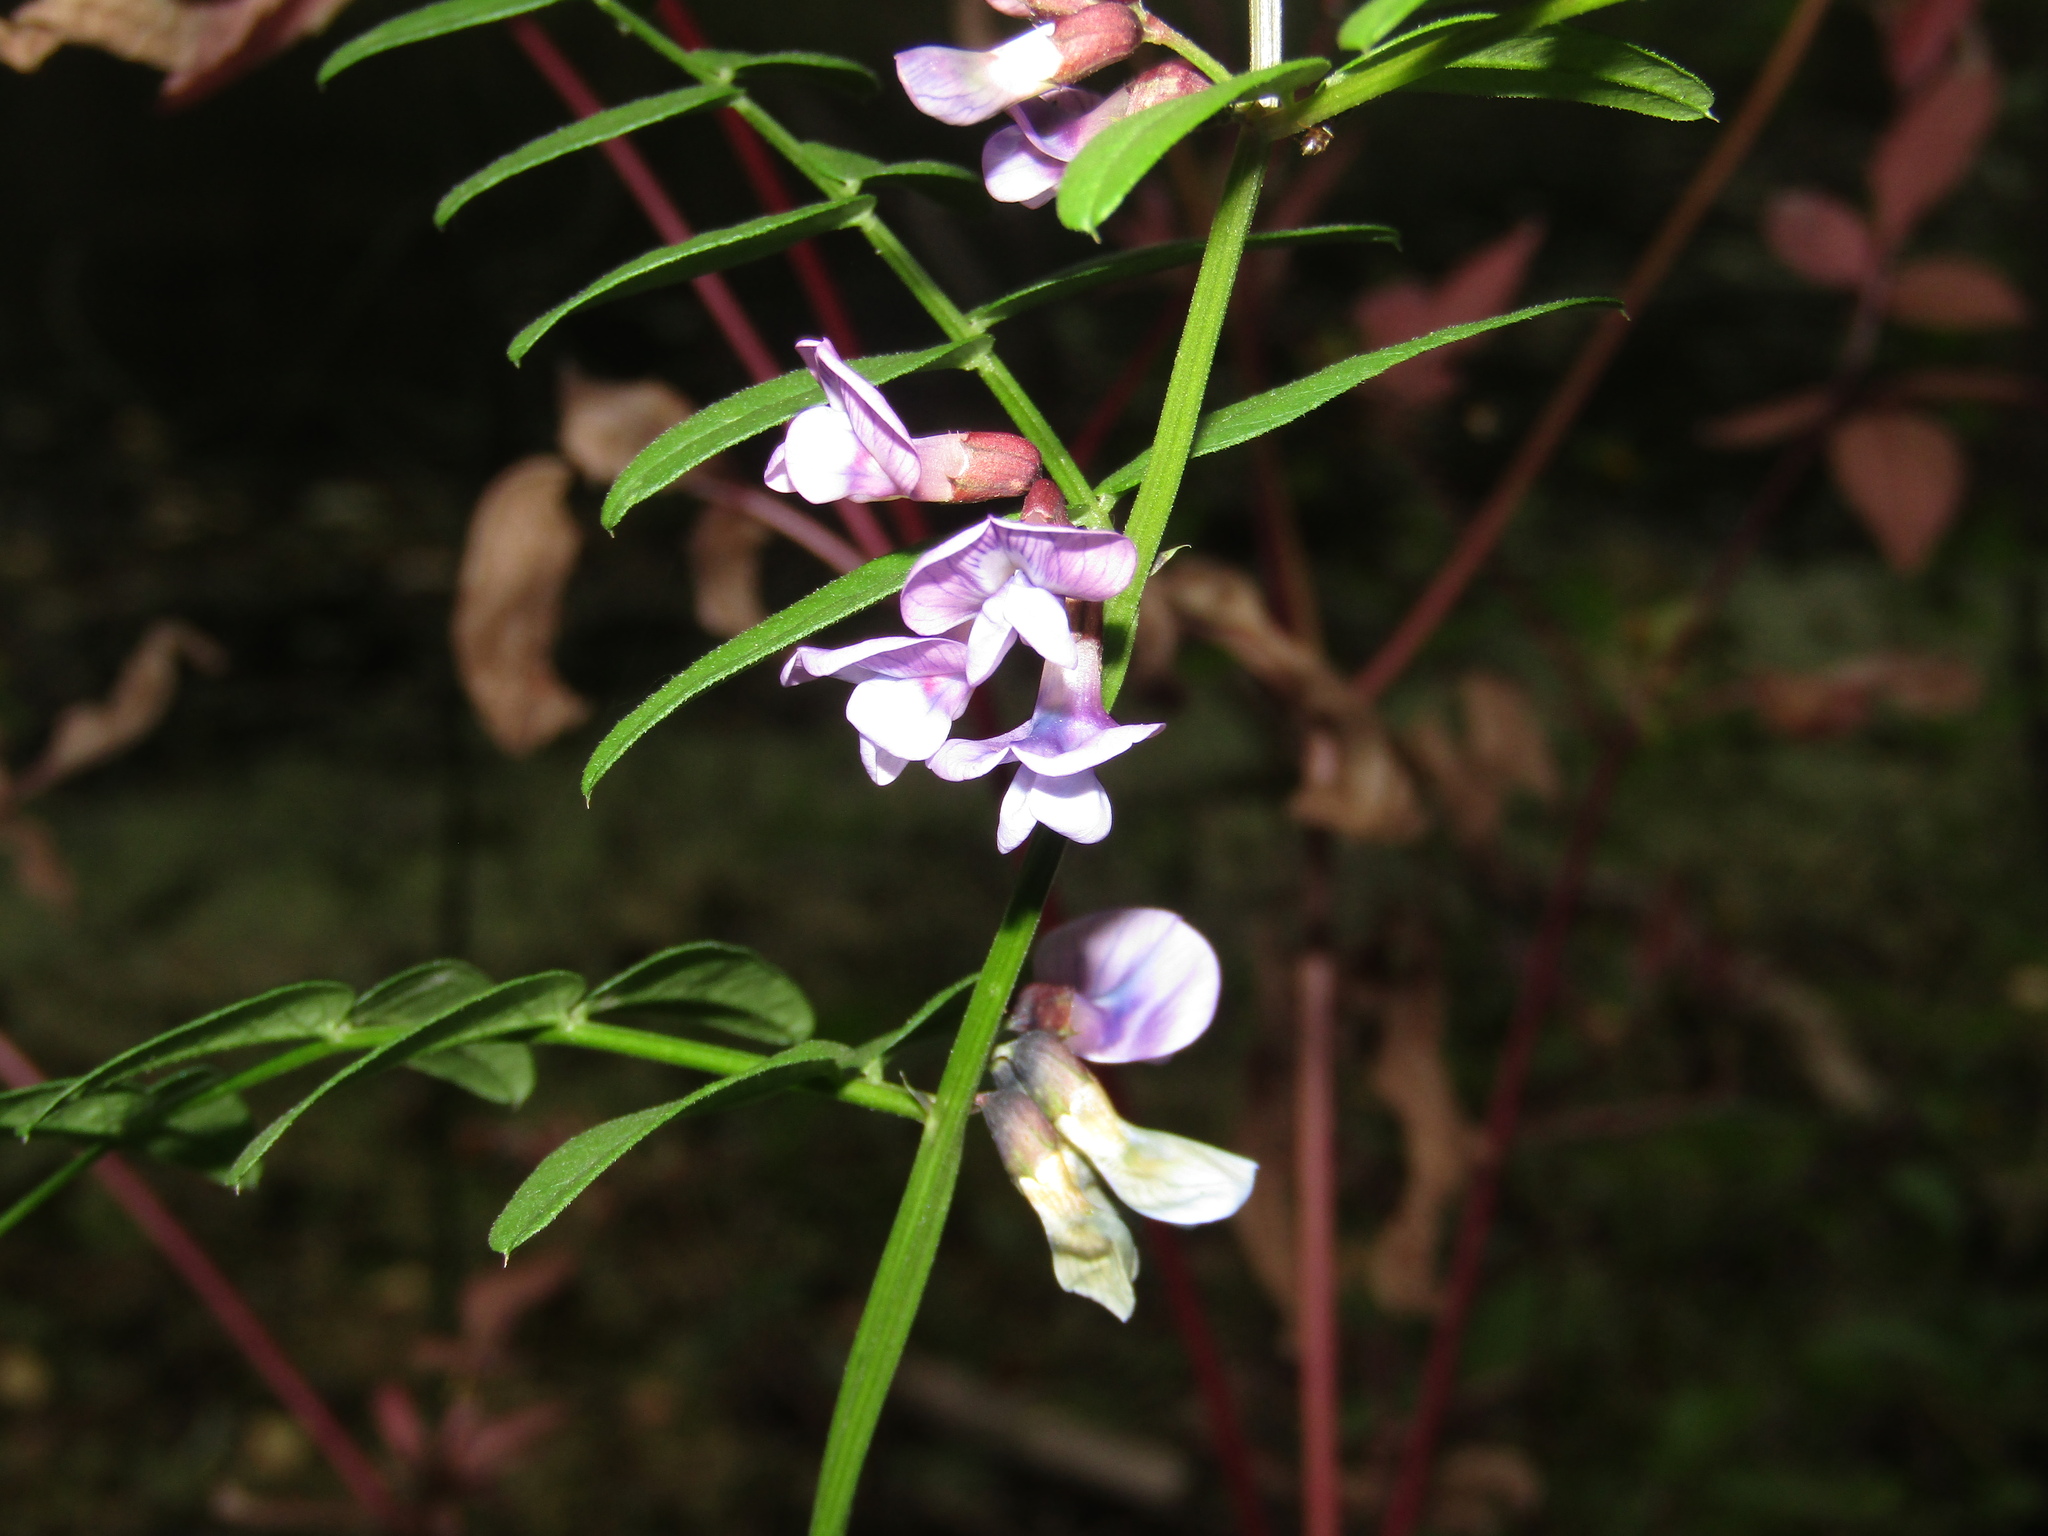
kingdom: Plantae
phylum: Tracheophyta
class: Magnoliopsida
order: Fabales
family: Fabaceae
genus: Vicia
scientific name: Vicia sepium
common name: Bush vetch
